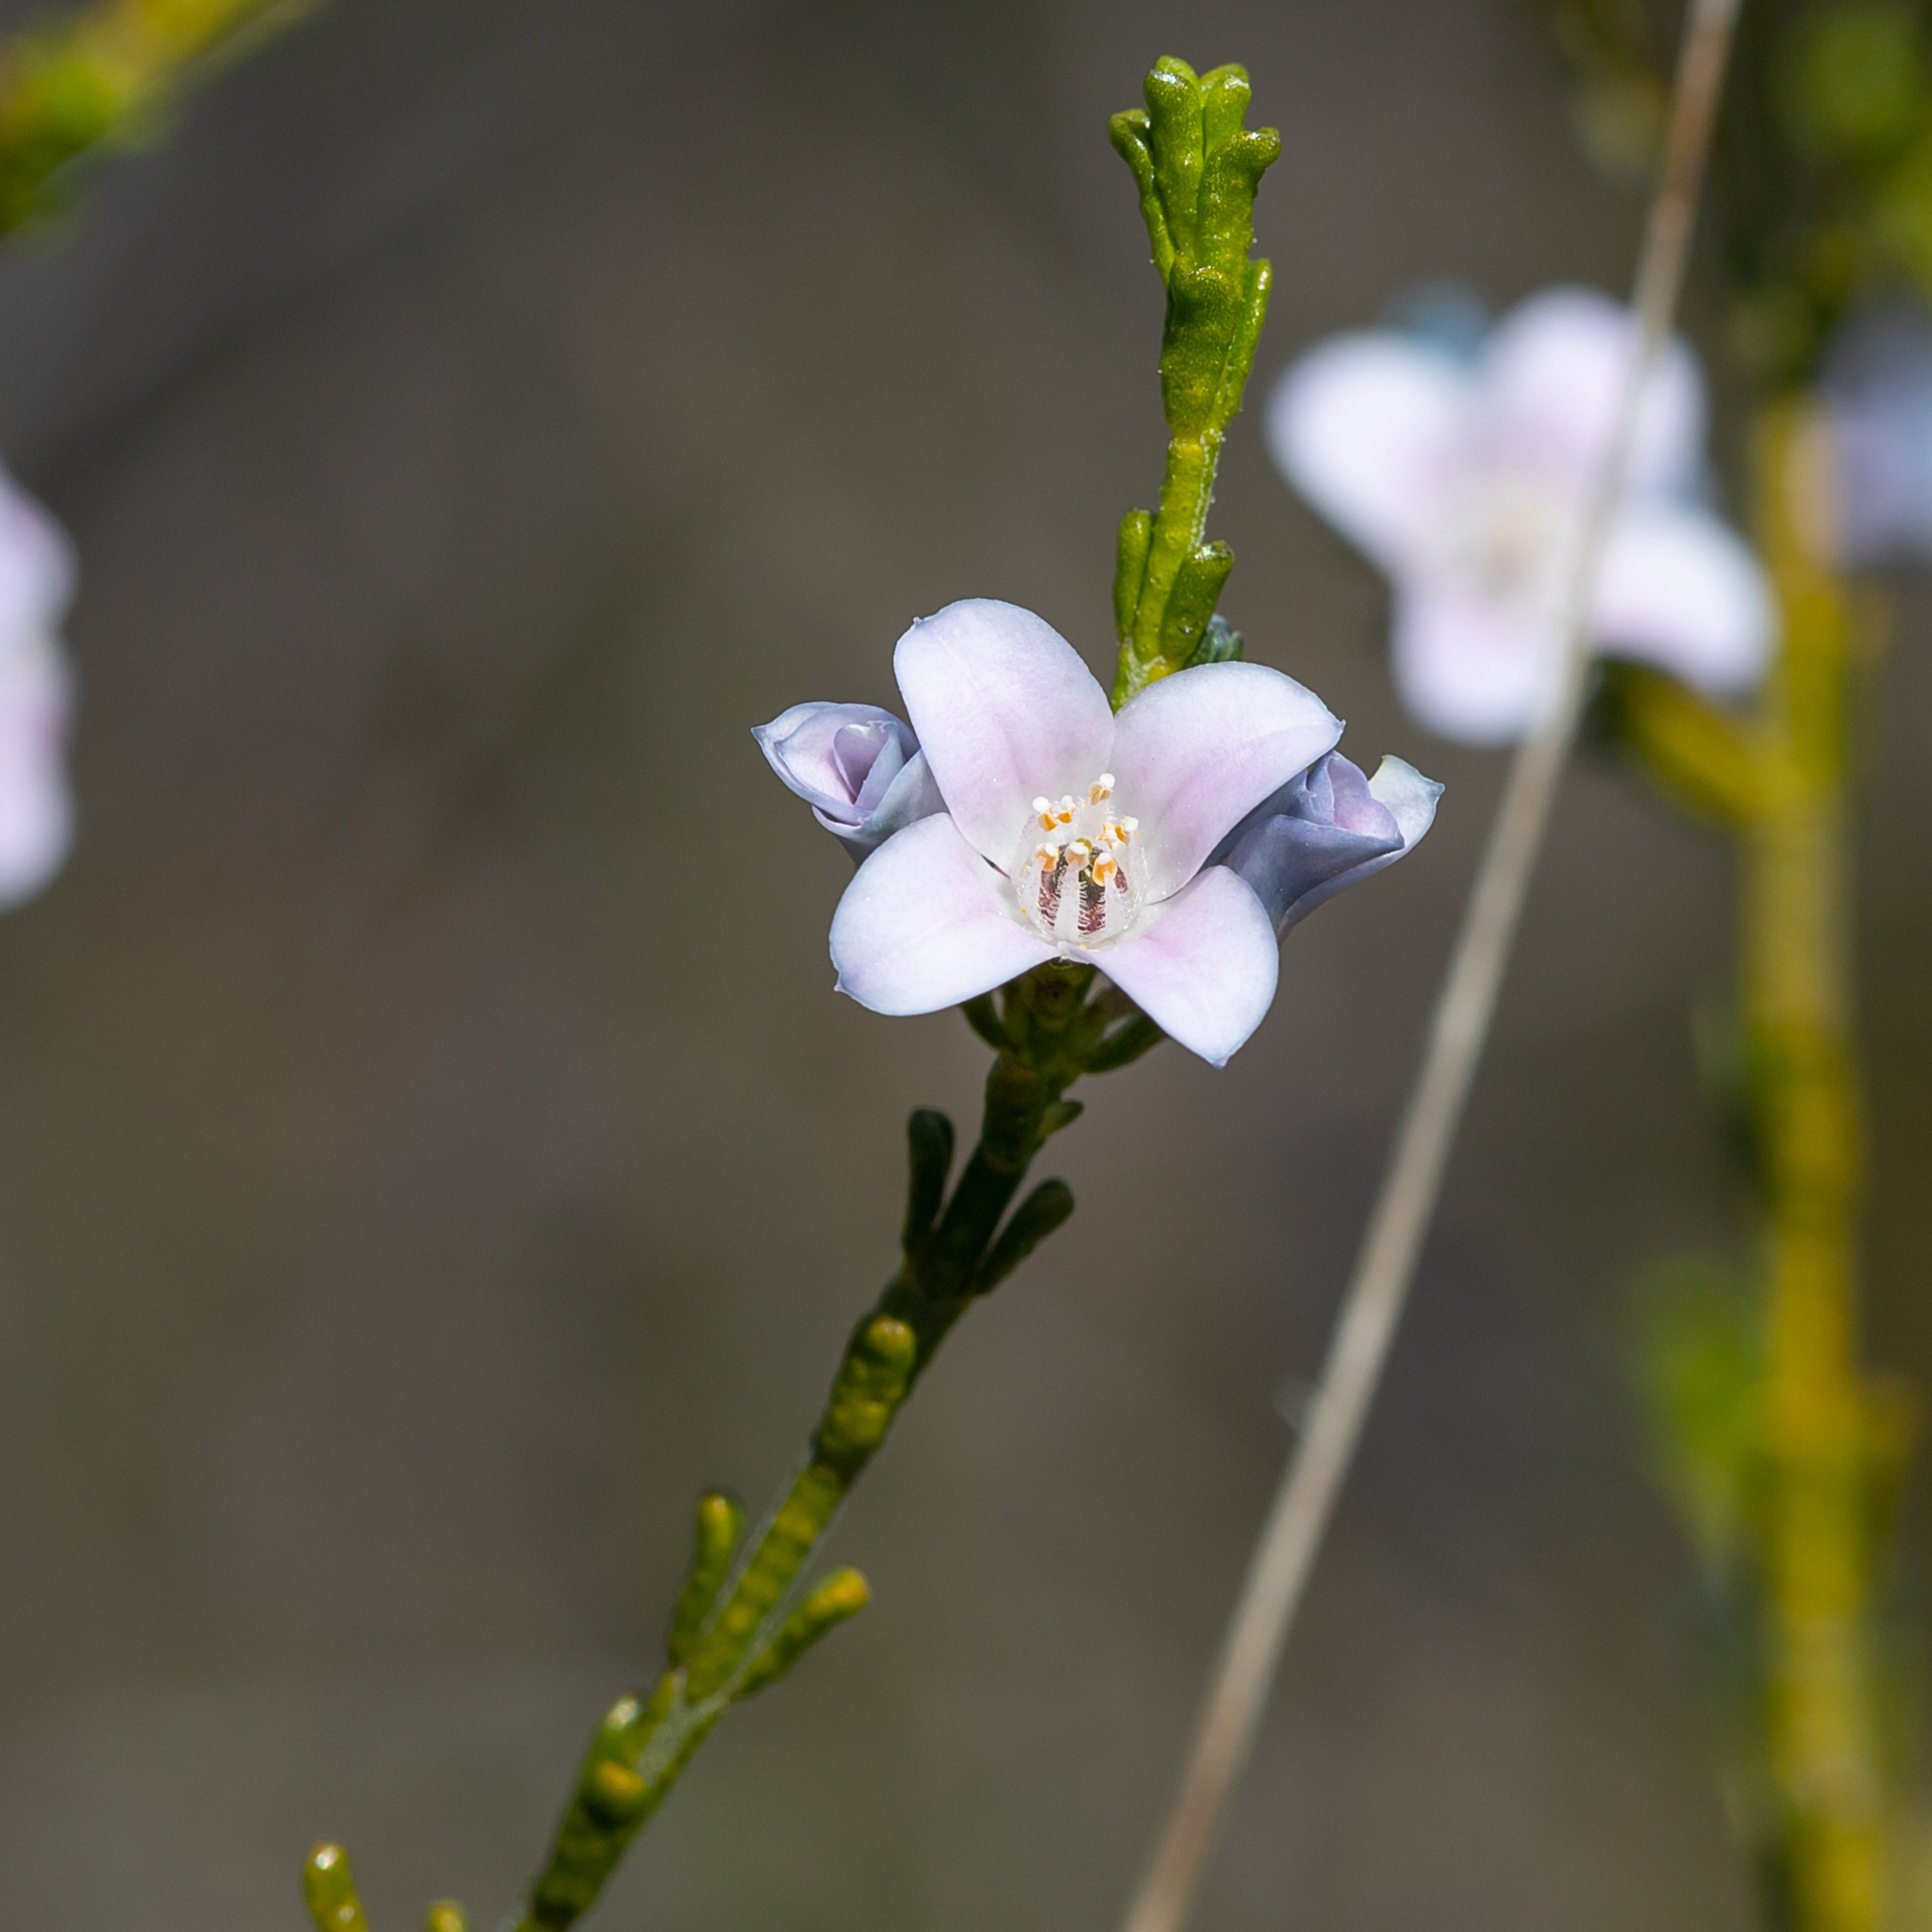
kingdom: Plantae
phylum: Tracheophyta
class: Magnoliopsida
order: Sapindales
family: Rutaceae
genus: Cyanothamnus
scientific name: Cyanothamnus coerulescens
